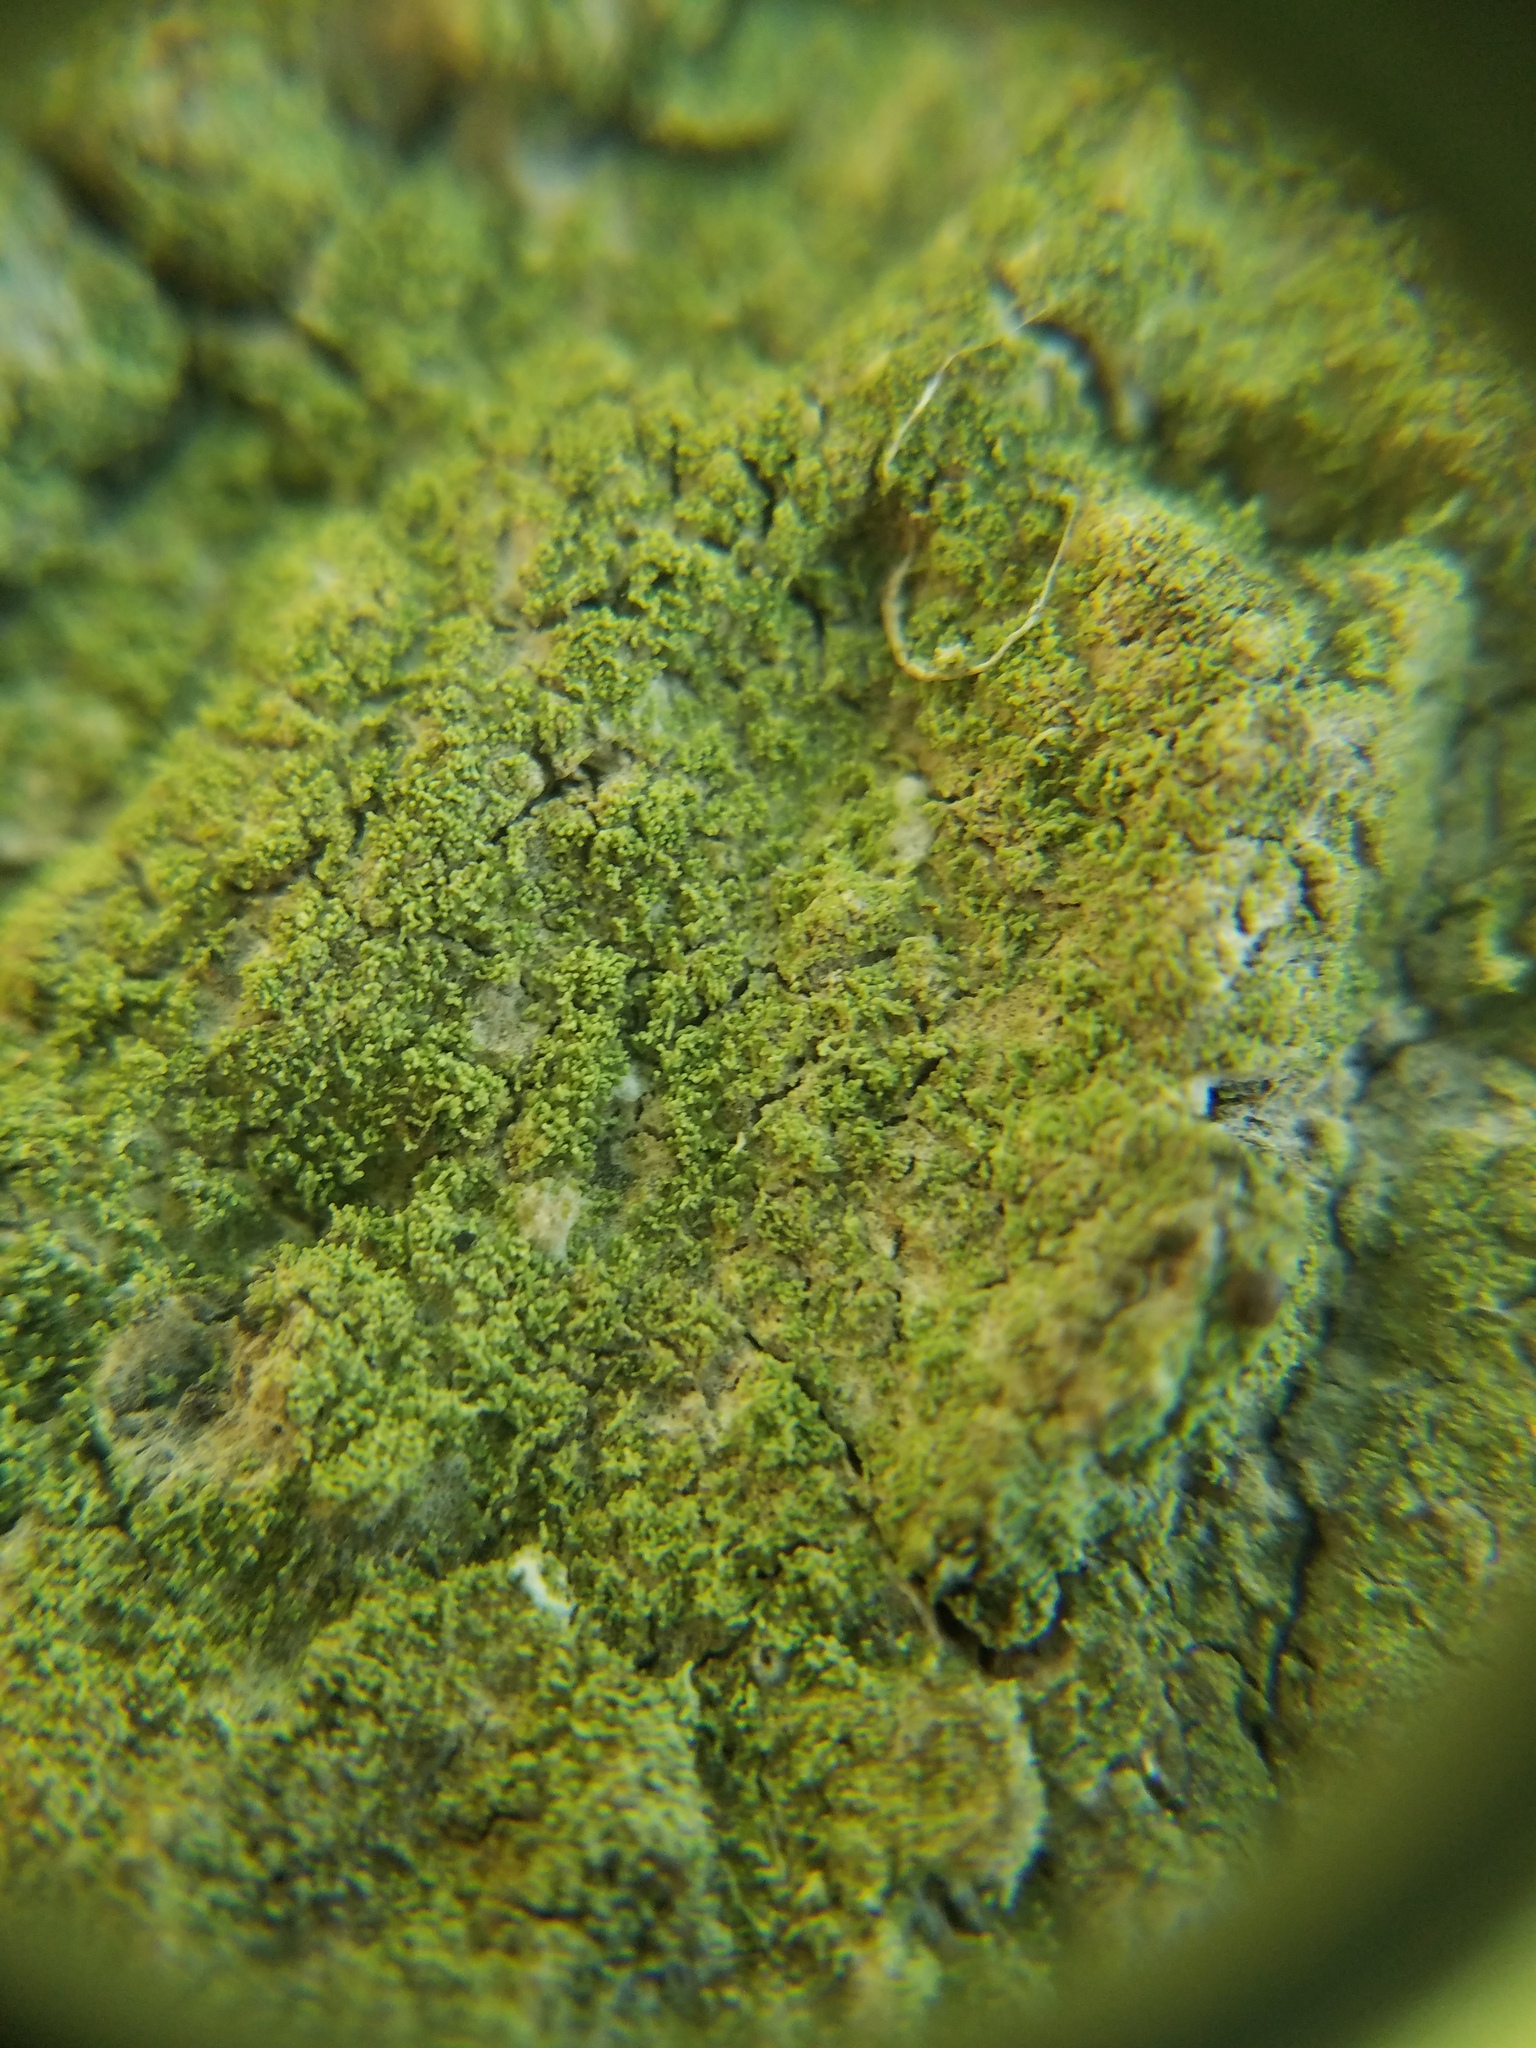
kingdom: Fungi
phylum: Ascomycota
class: Lecanoromycetes
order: Lecanorales
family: Ramalinaceae
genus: Phyllopsora
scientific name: Phyllopsora corallina
